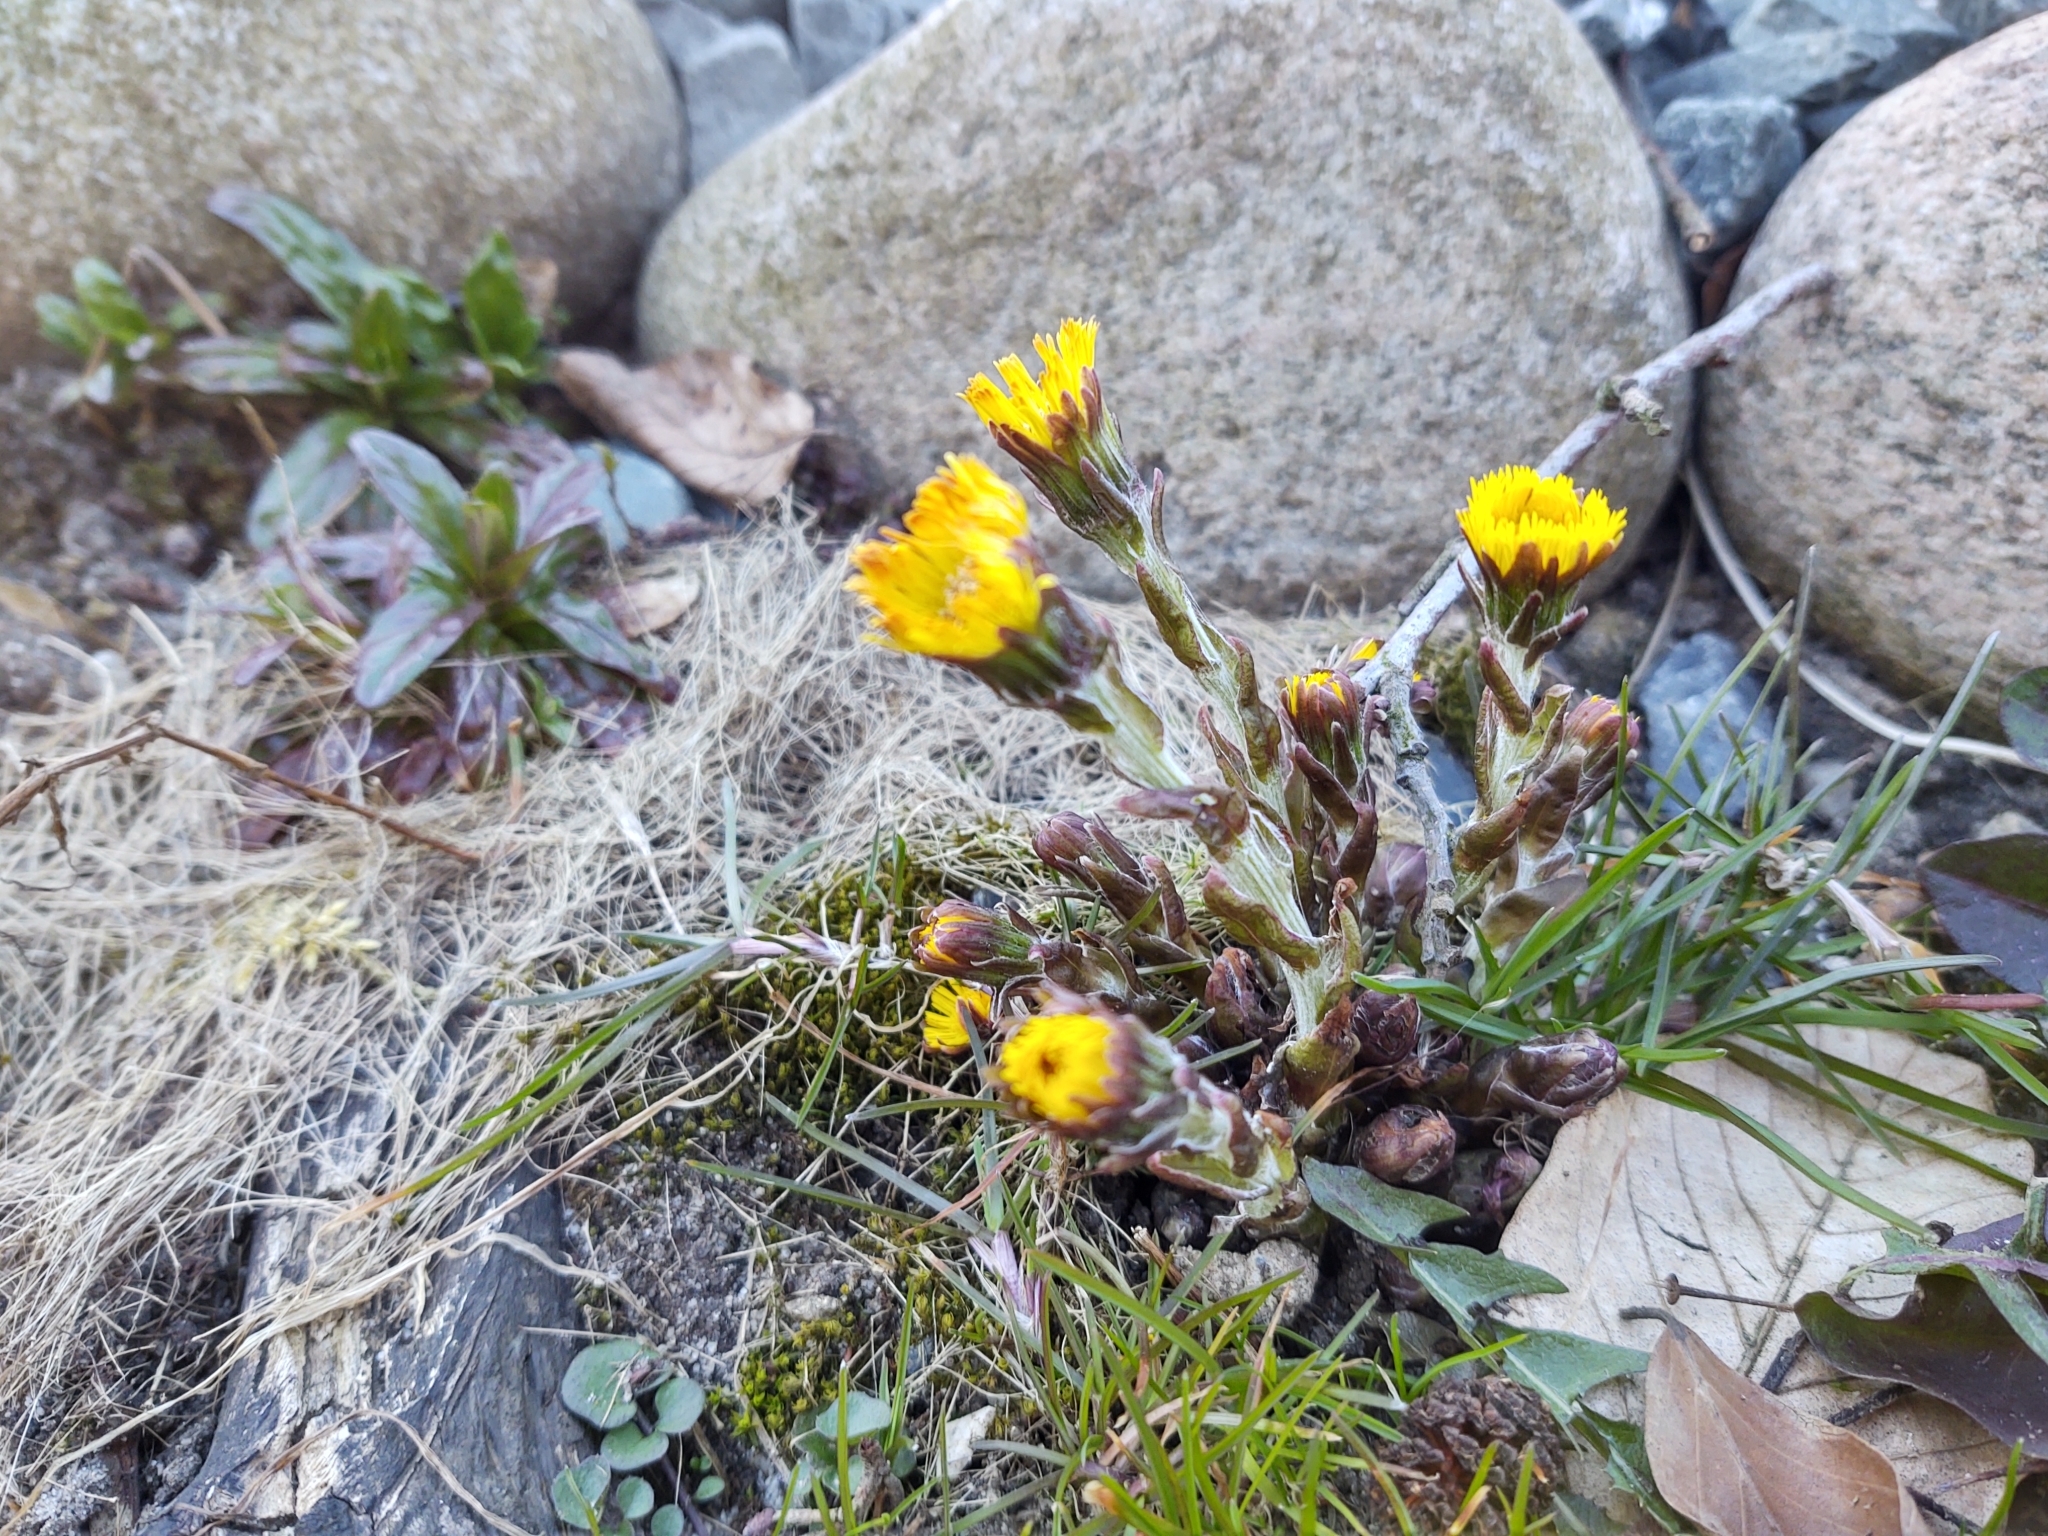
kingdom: Plantae
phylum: Tracheophyta
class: Magnoliopsida
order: Asterales
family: Asteraceae
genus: Tussilago
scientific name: Tussilago farfara
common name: Coltsfoot
